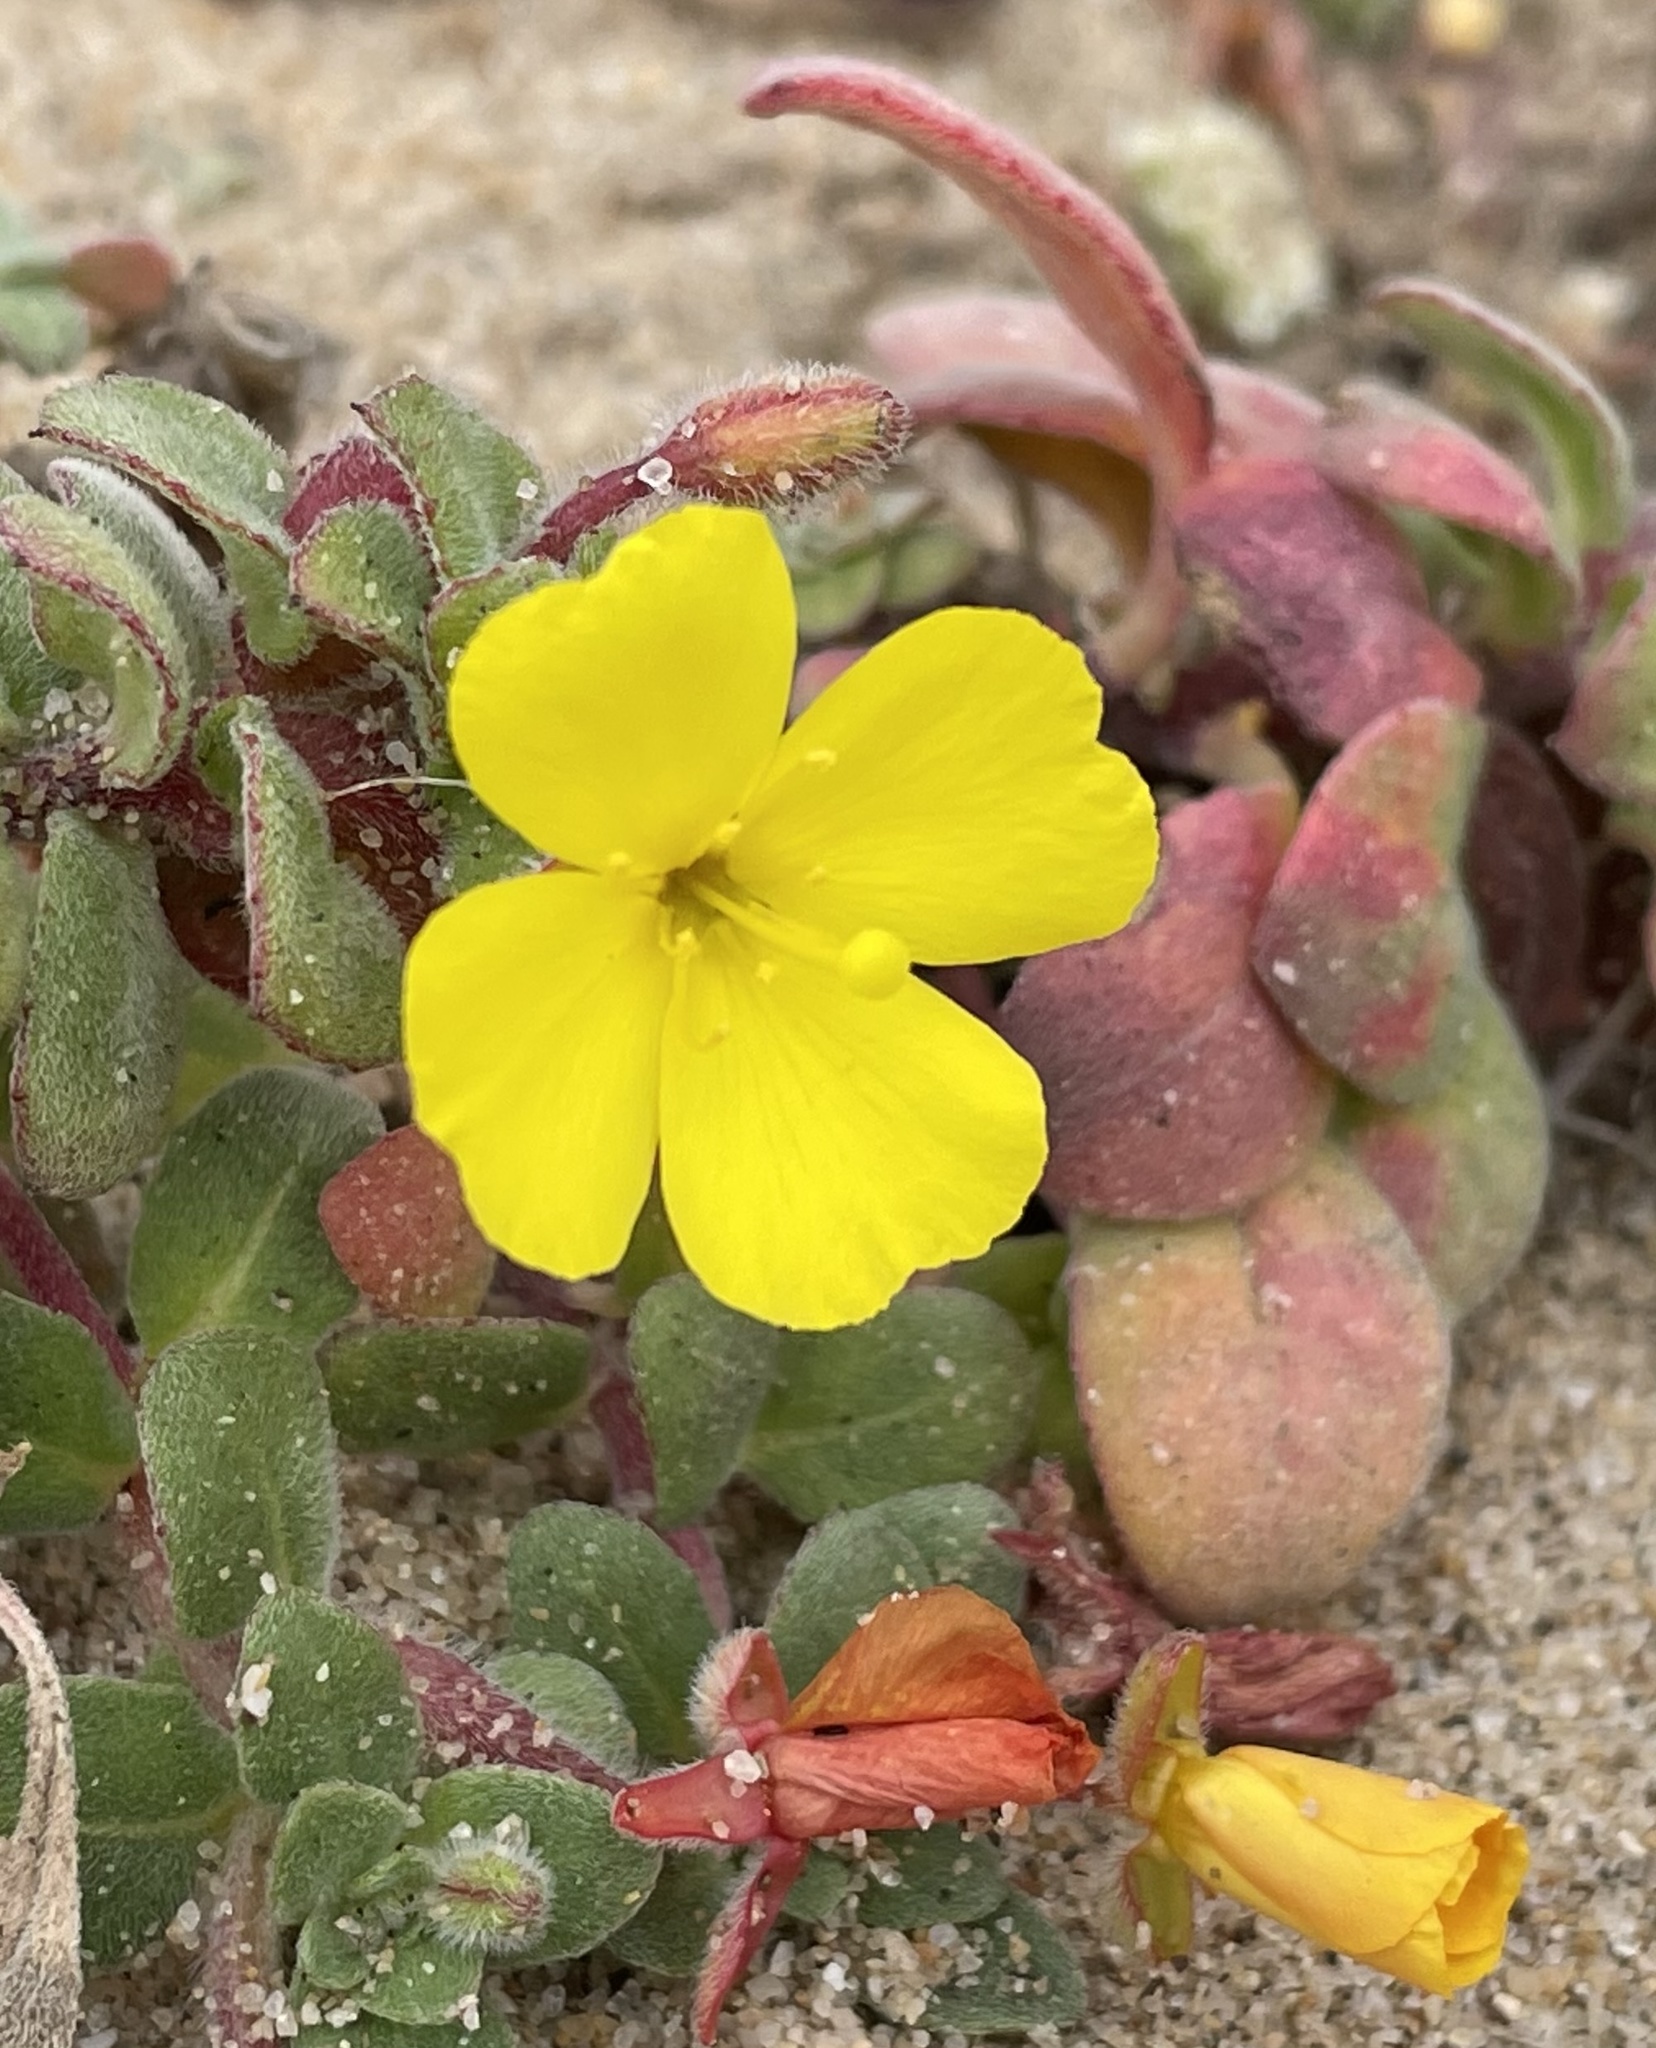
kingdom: Plantae
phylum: Tracheophyta
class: Magnoliopsida
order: Myrtales
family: Onagraceae
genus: Camissoniopsis
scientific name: Camissoniopsis cheiranthifolia
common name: Beach suncup
